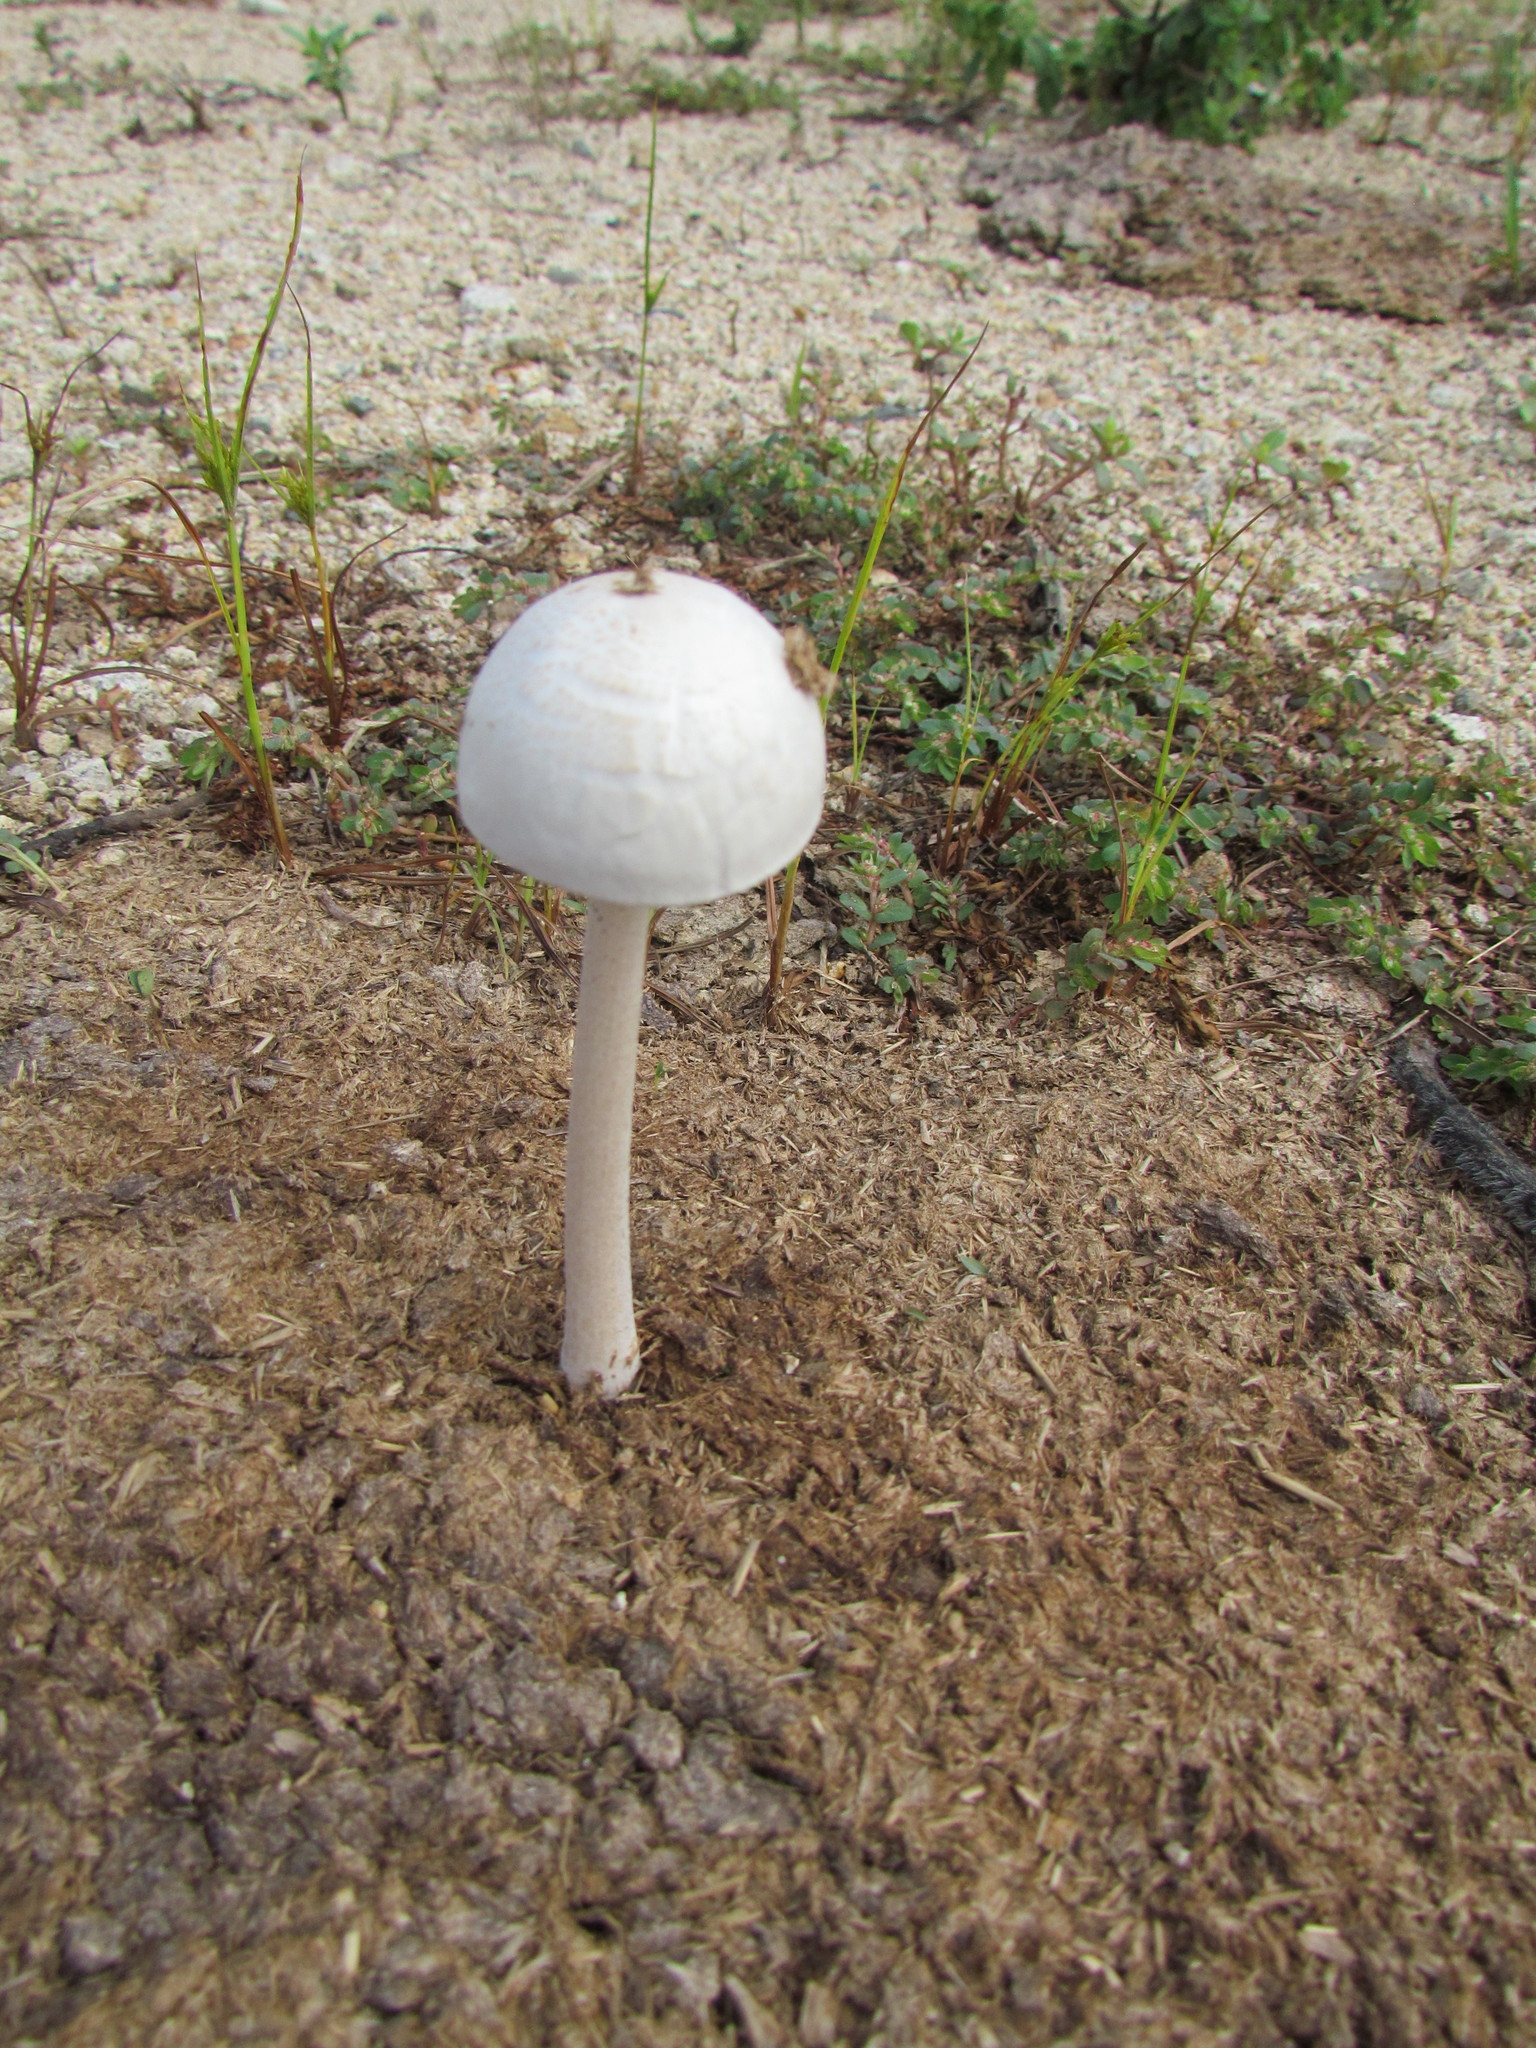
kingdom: Fungi
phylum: Basidiomycota
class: Agaricomycetes
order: Agaricales
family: Bolbitiaceae
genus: Panaeolus
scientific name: Panaeolus antillarum
